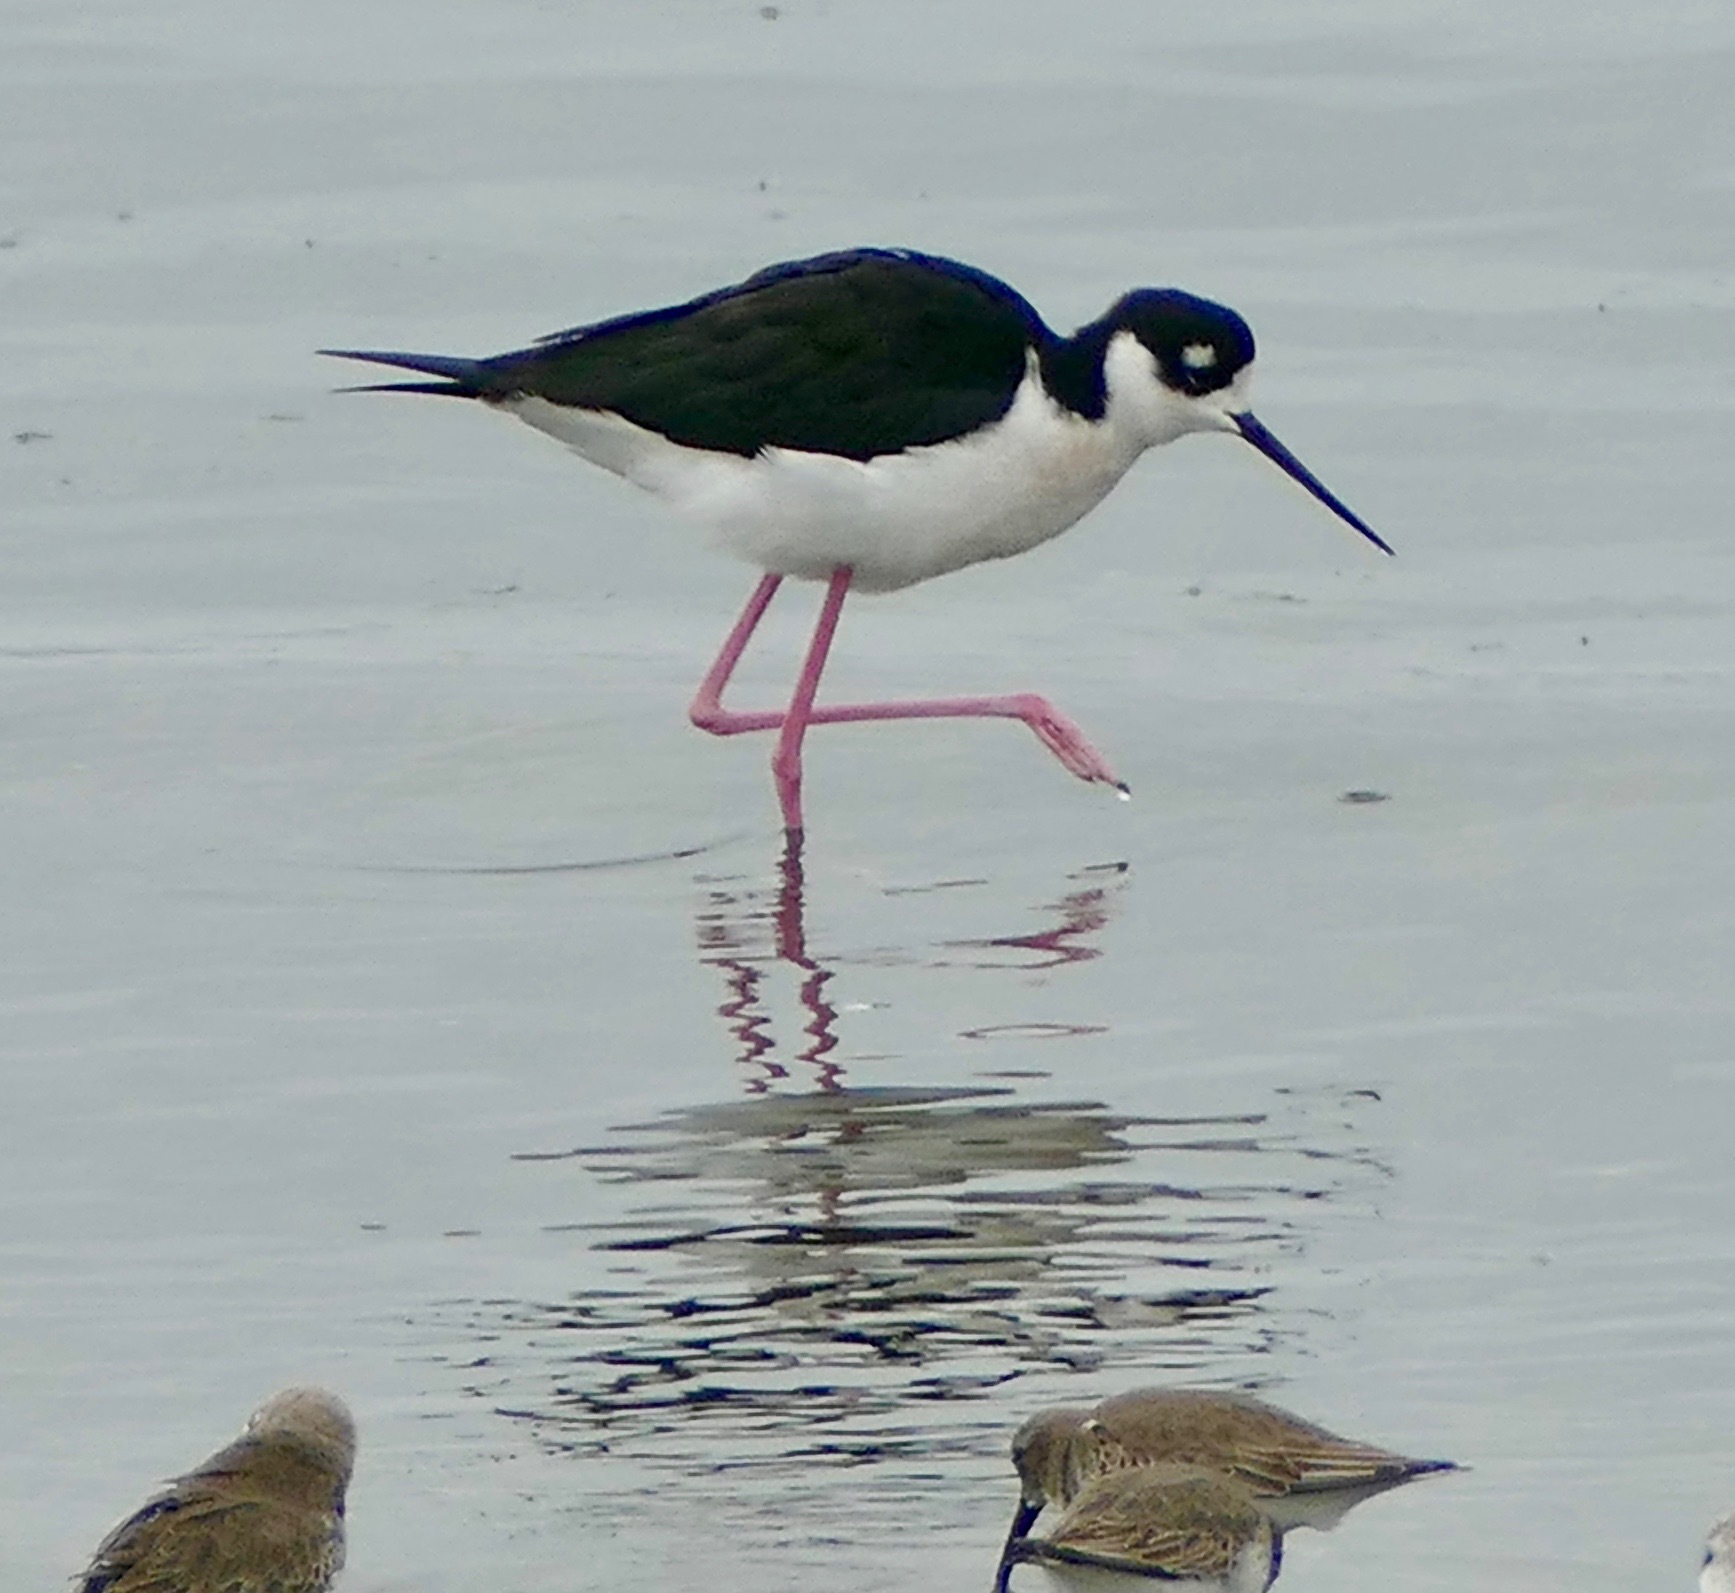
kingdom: Animalia
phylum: Chordata
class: Aves
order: Charadriiformes
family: Recurvirostridae
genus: Himantopus
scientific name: Himantopus mexicanus
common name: Black-necked stilt
